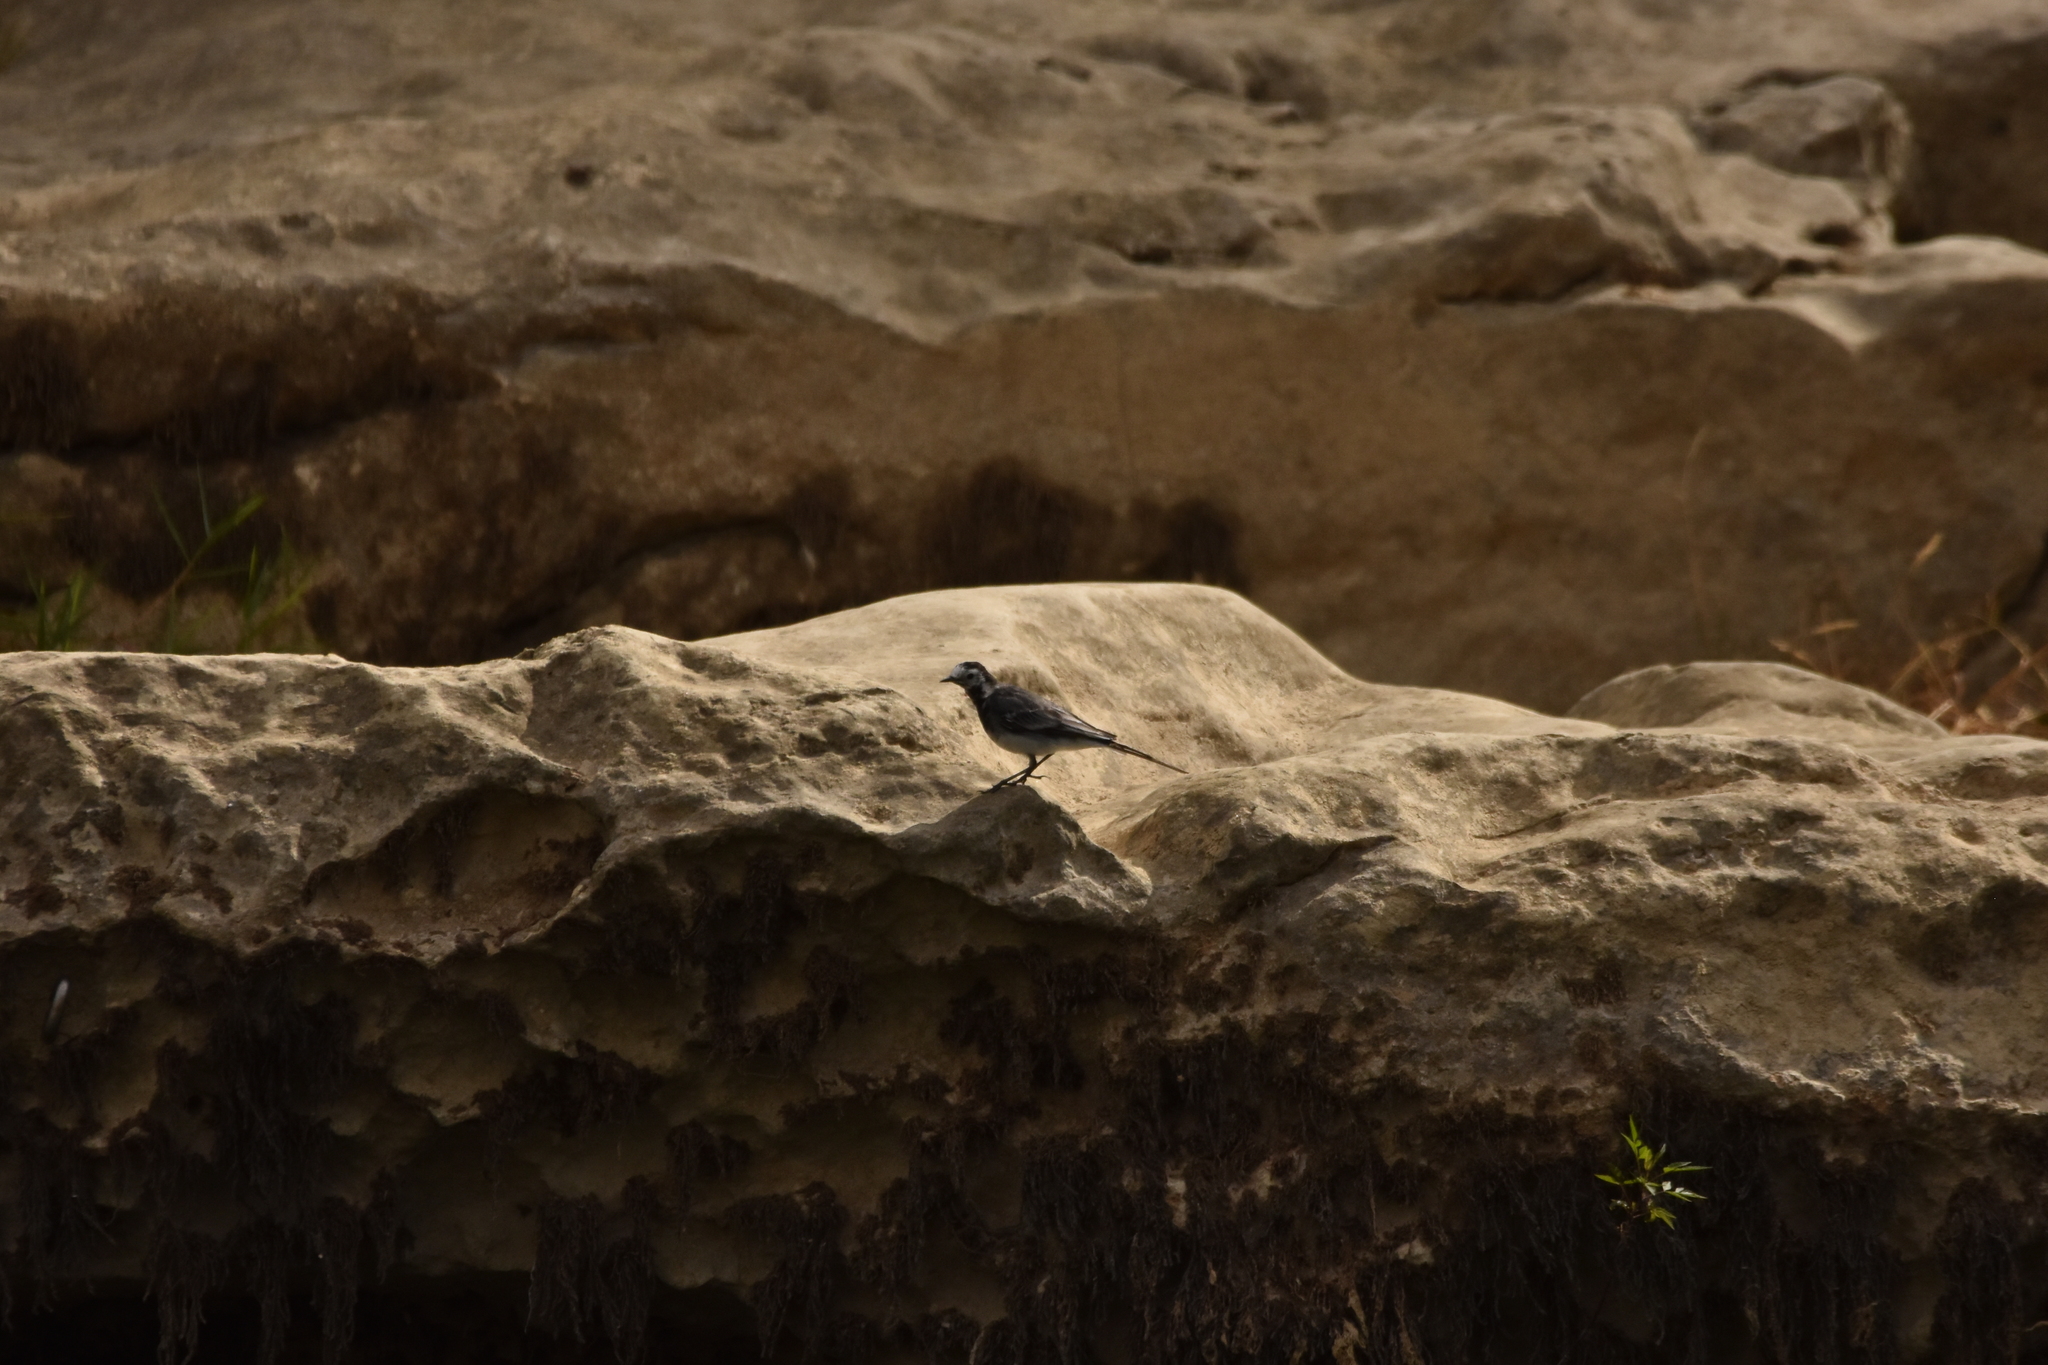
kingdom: Animalia
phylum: Chordata
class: Aves
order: Passeriformes
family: Motacillidae
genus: Motacilla
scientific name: Motacilla alba
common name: White wagtail
